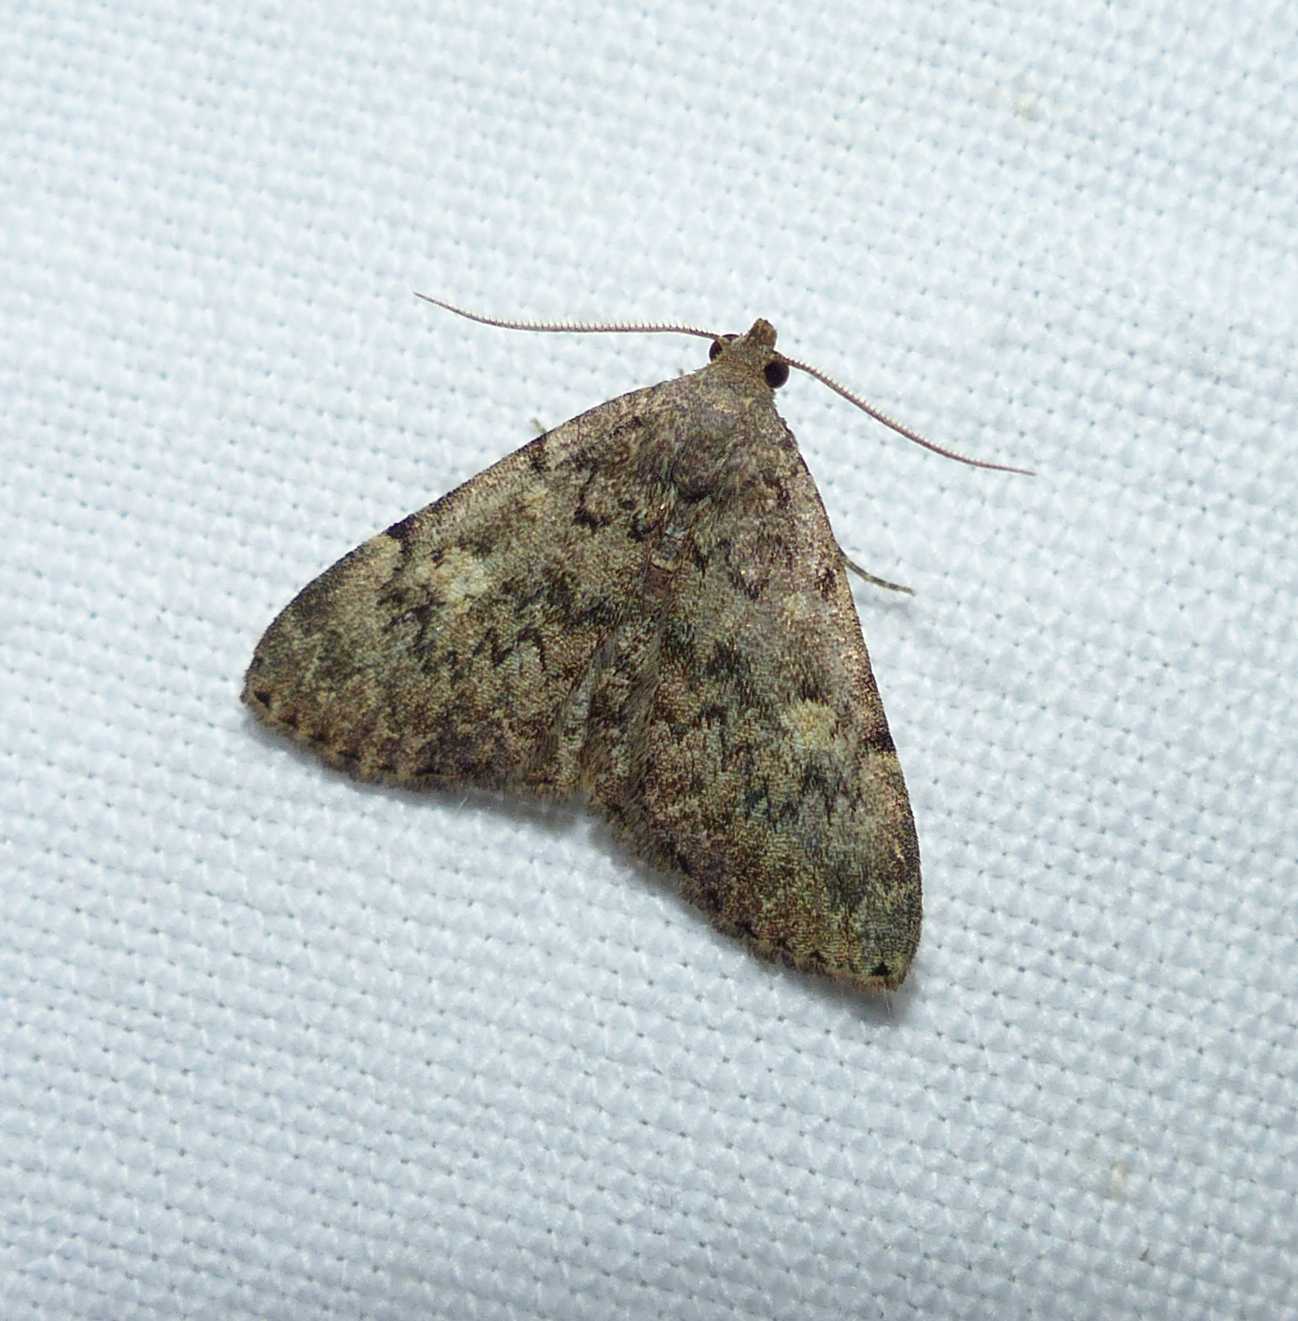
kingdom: Animalia
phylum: Arthropoda
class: Insecta
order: Lepidoptera
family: Erebidae
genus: Idia
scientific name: Idia aemula
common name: Common idia moth
